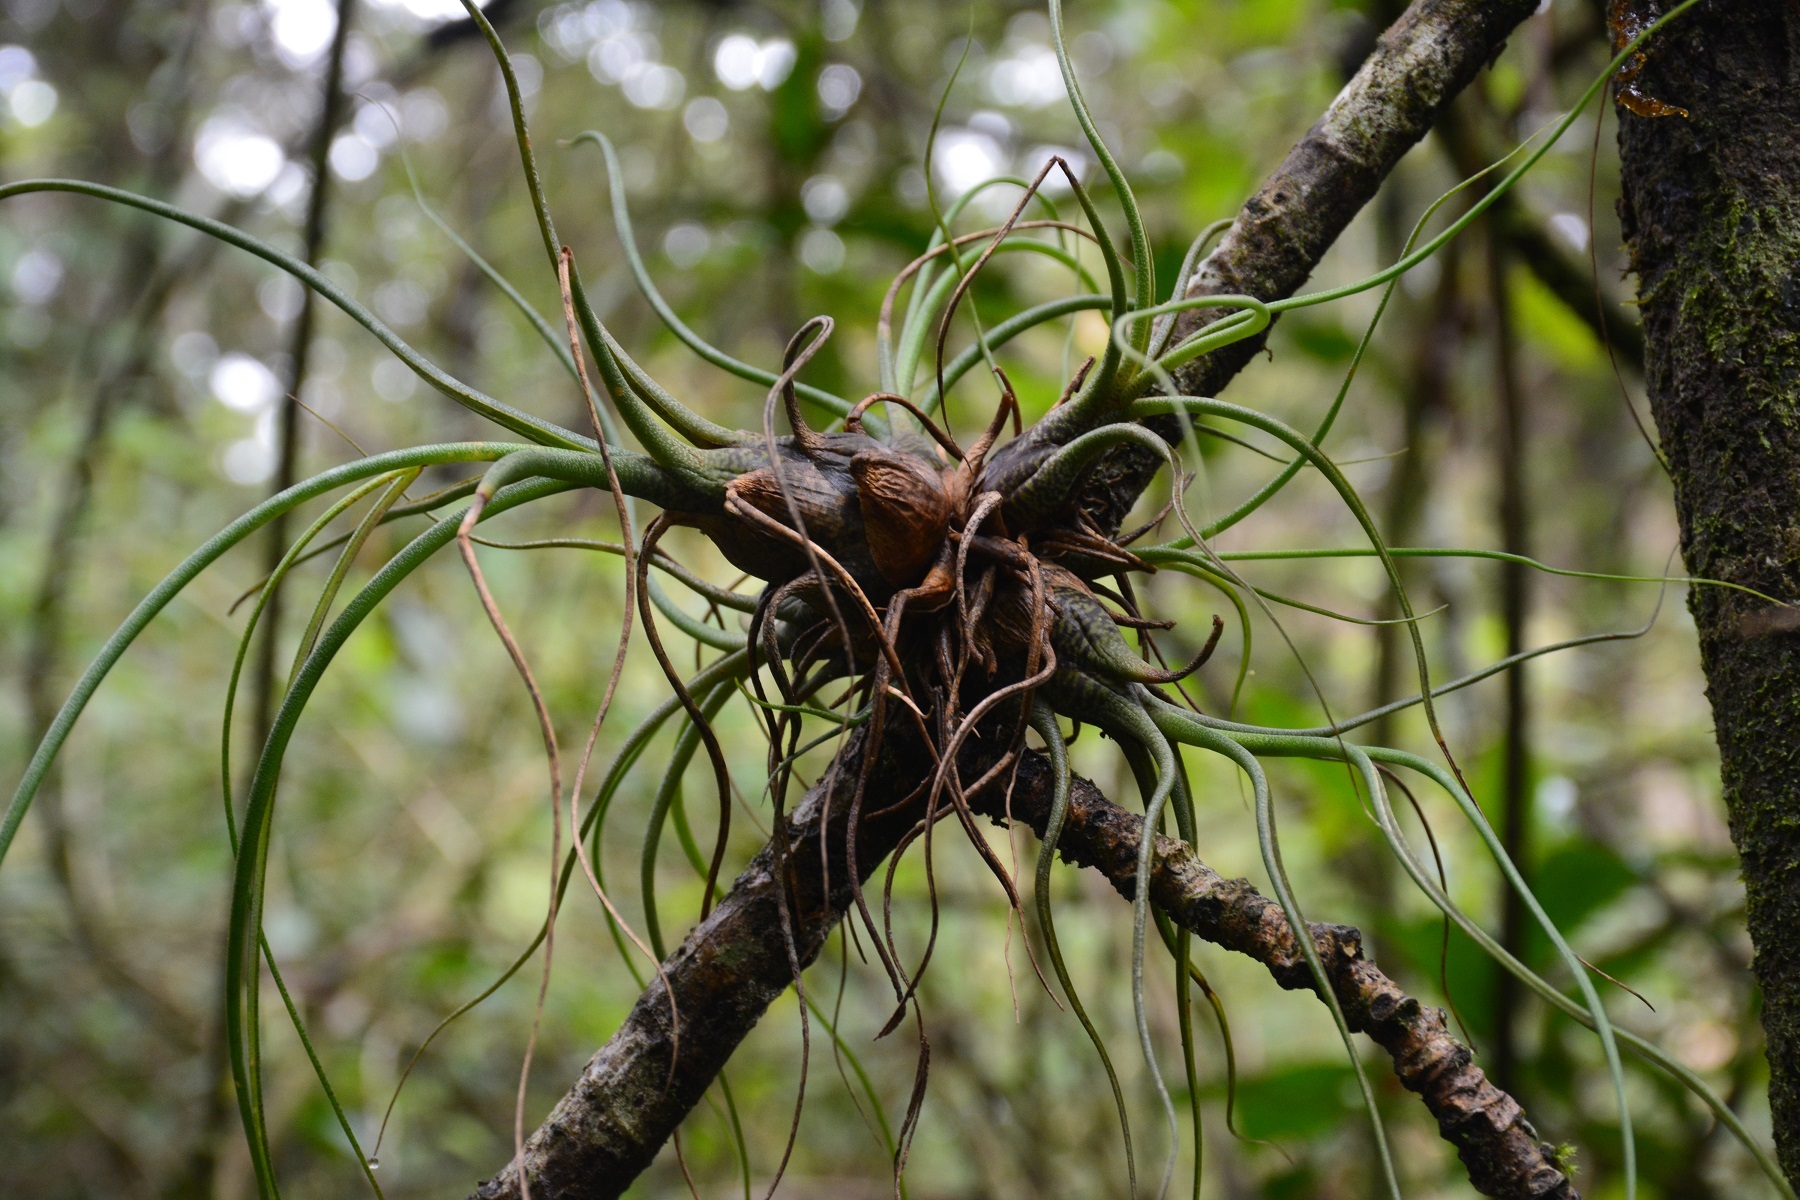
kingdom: Plantae
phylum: Tracheophyta
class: Liliopsida
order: Poales
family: Bromeliaceae
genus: Tillandsia
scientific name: Tillandsia butzii
